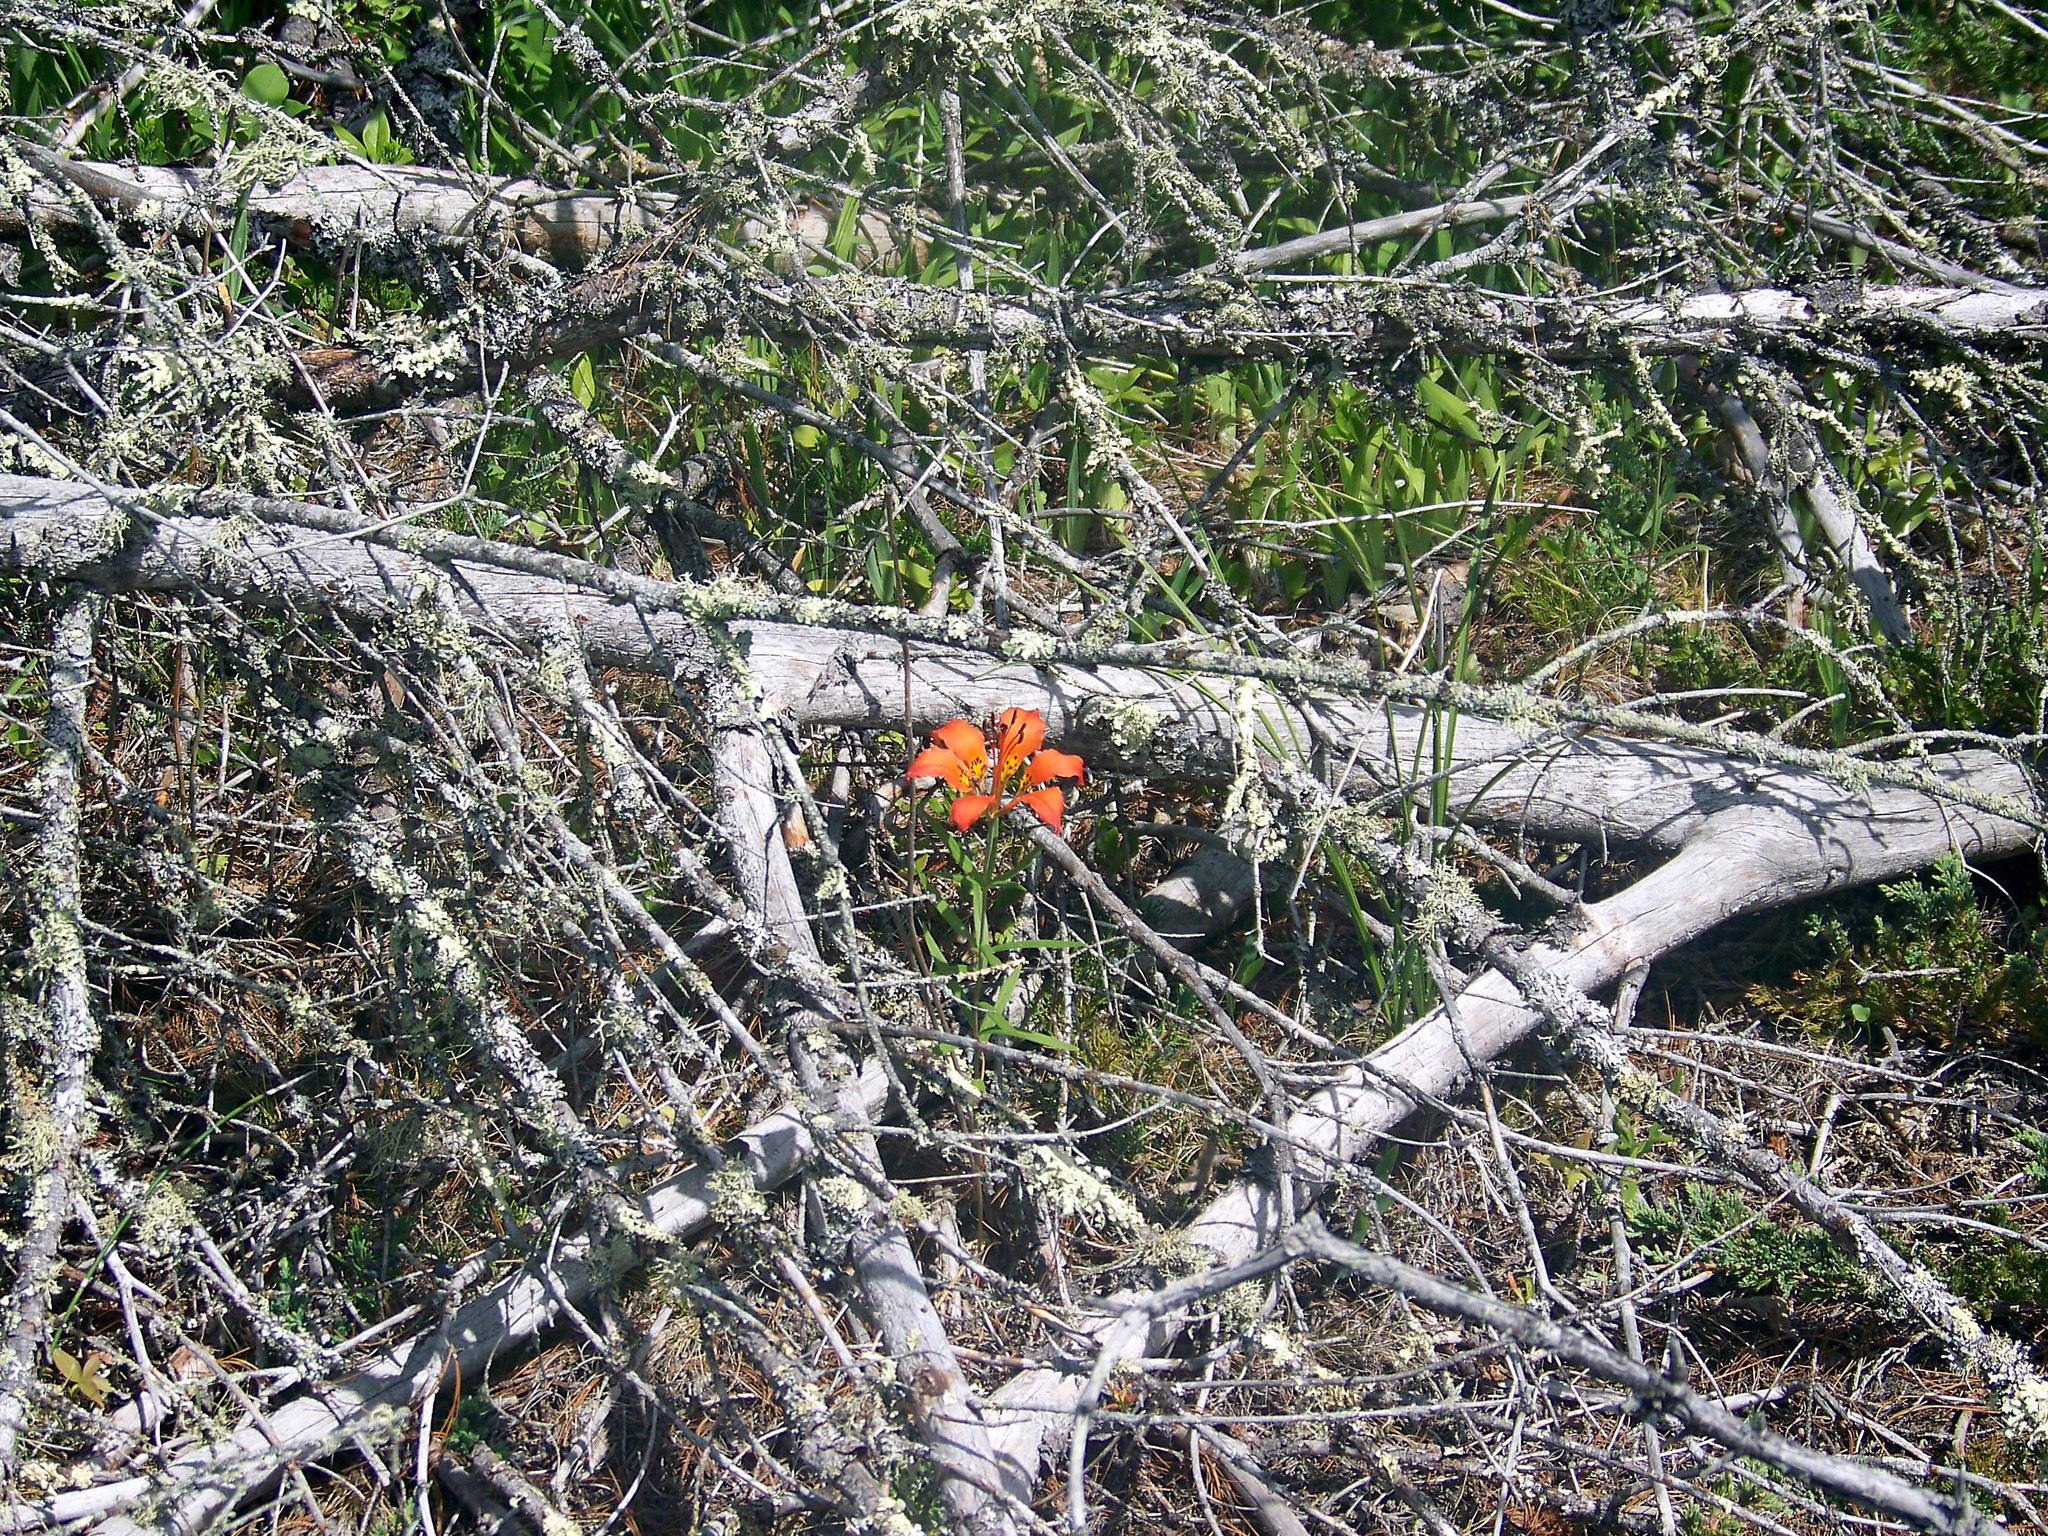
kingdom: Plantae
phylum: Tracheophyta
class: Liliopsida
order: Liliales
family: Liliaceae
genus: Lilium
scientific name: Lilium philadelphicum
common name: Red lily
